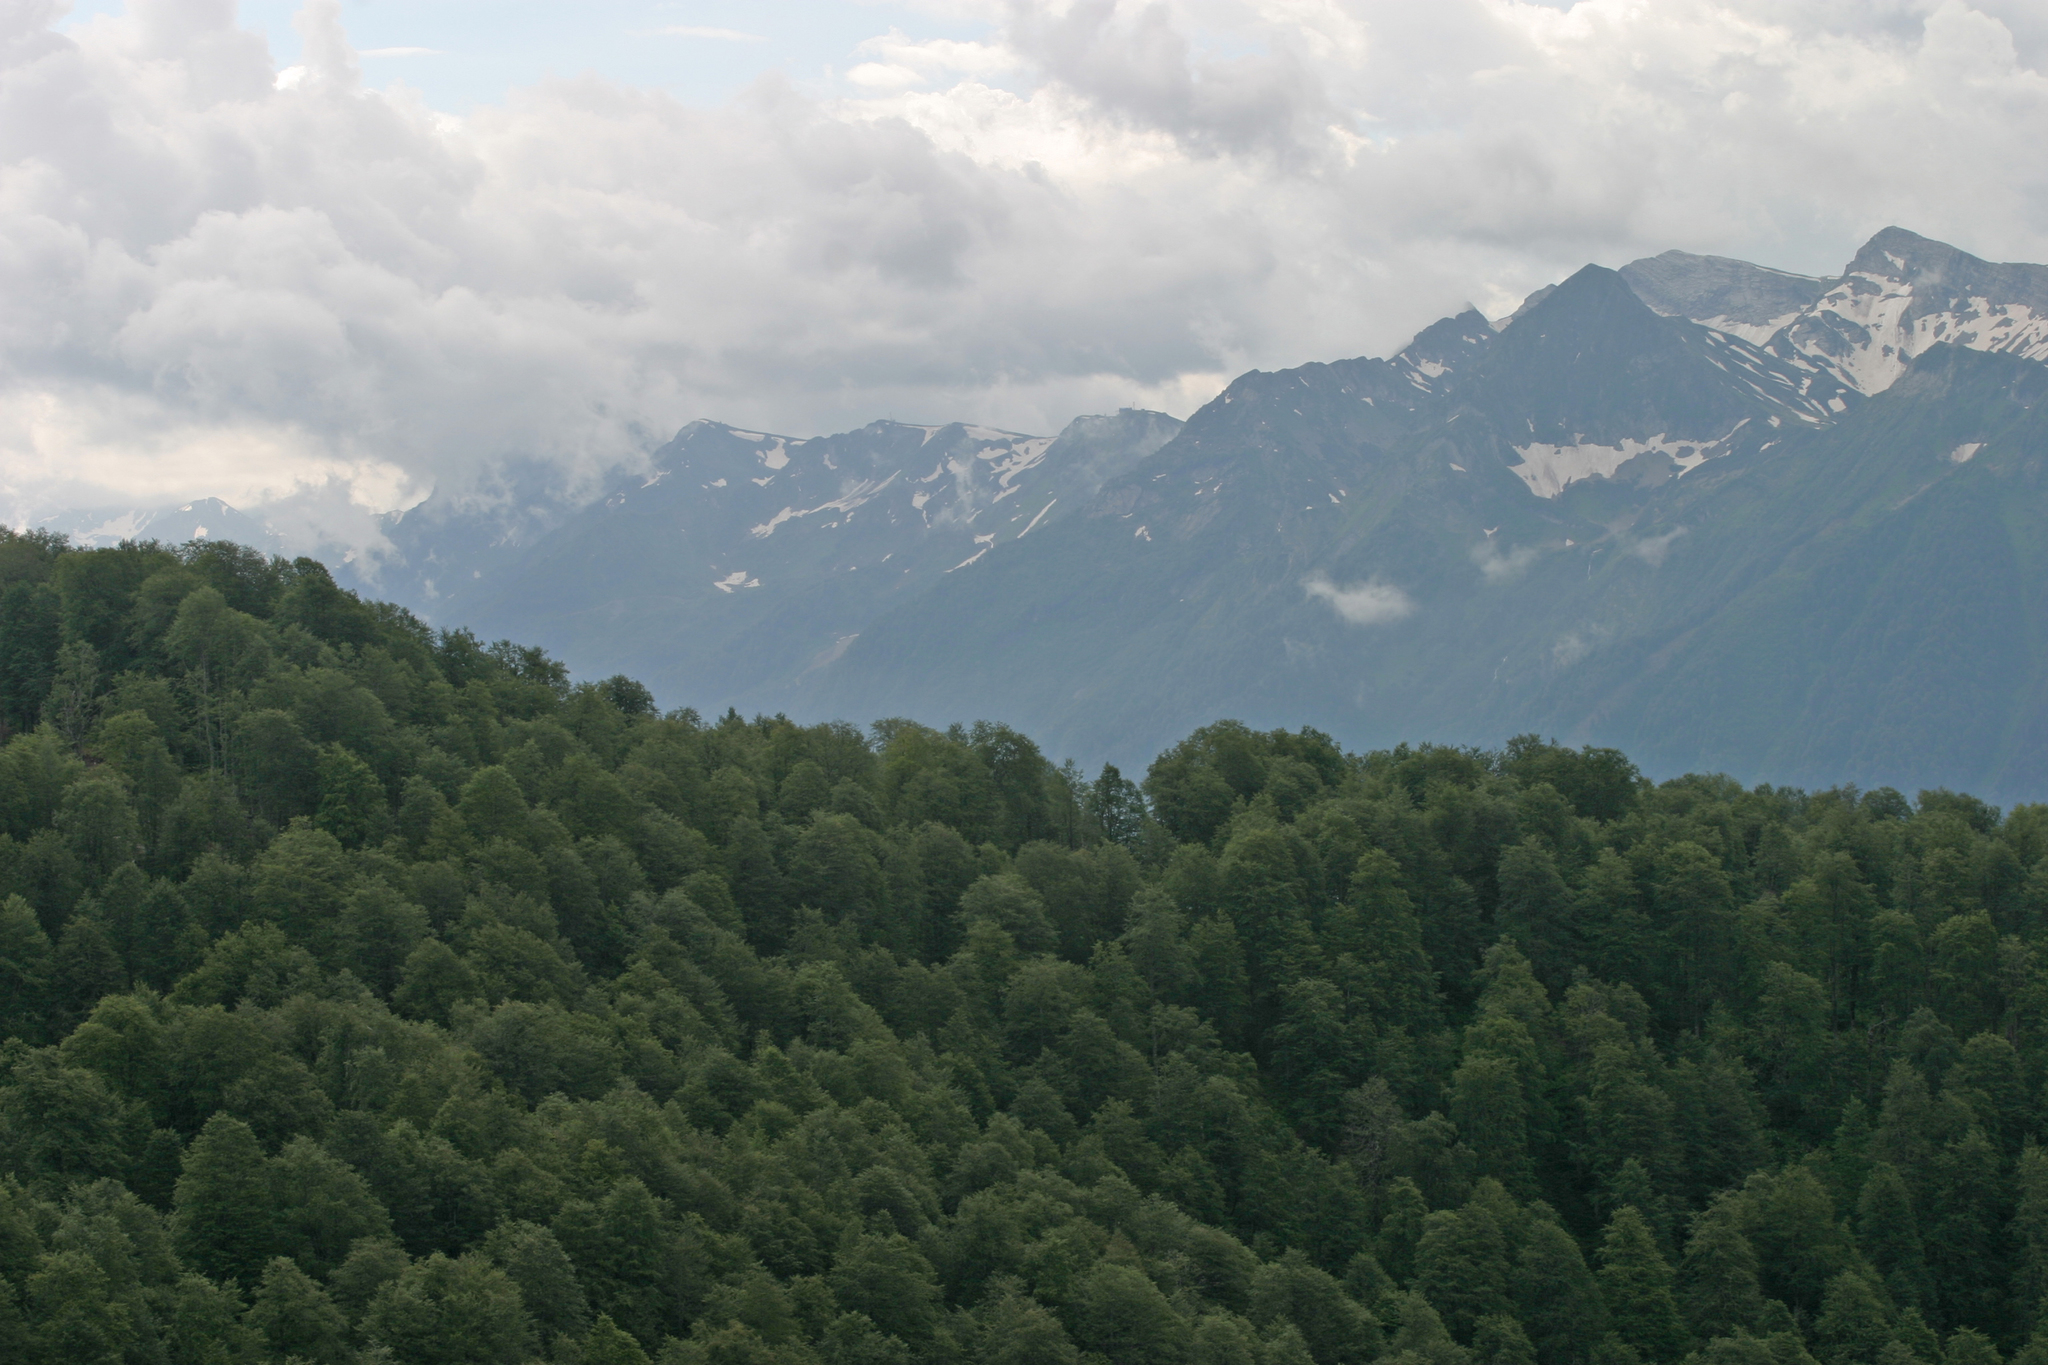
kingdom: Plantae
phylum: Tracheophyta
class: Magnoliopsida
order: Fagales
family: Fagaceae
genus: Fagus
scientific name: Fagus orientalis
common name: Oriental beech
